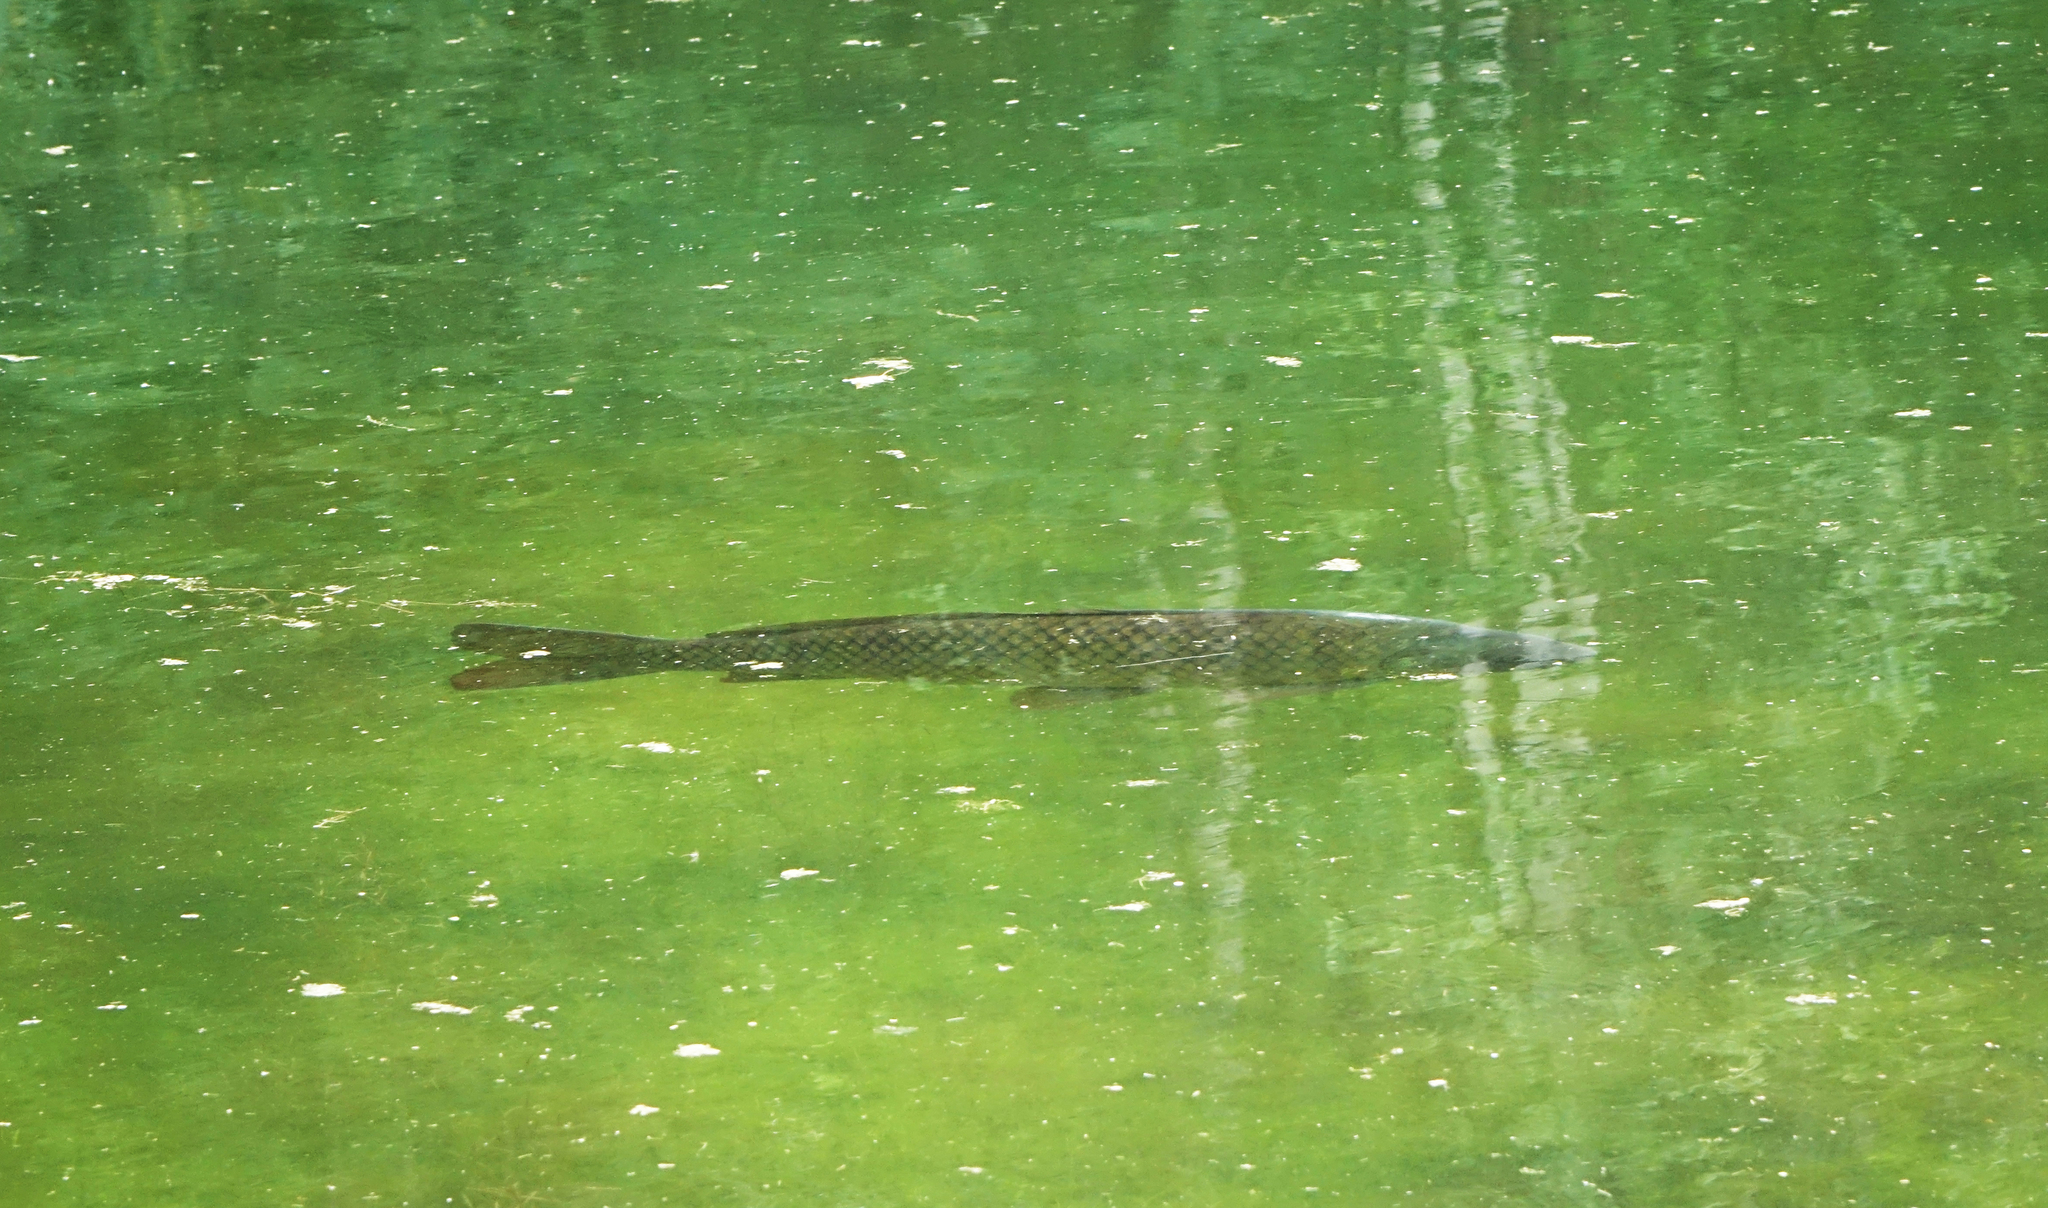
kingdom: Animalia
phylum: Chordata
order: Cypriniformes
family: Cyprinidae
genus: Cyprinus
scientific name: Cyprinus carpio
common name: Common carp
